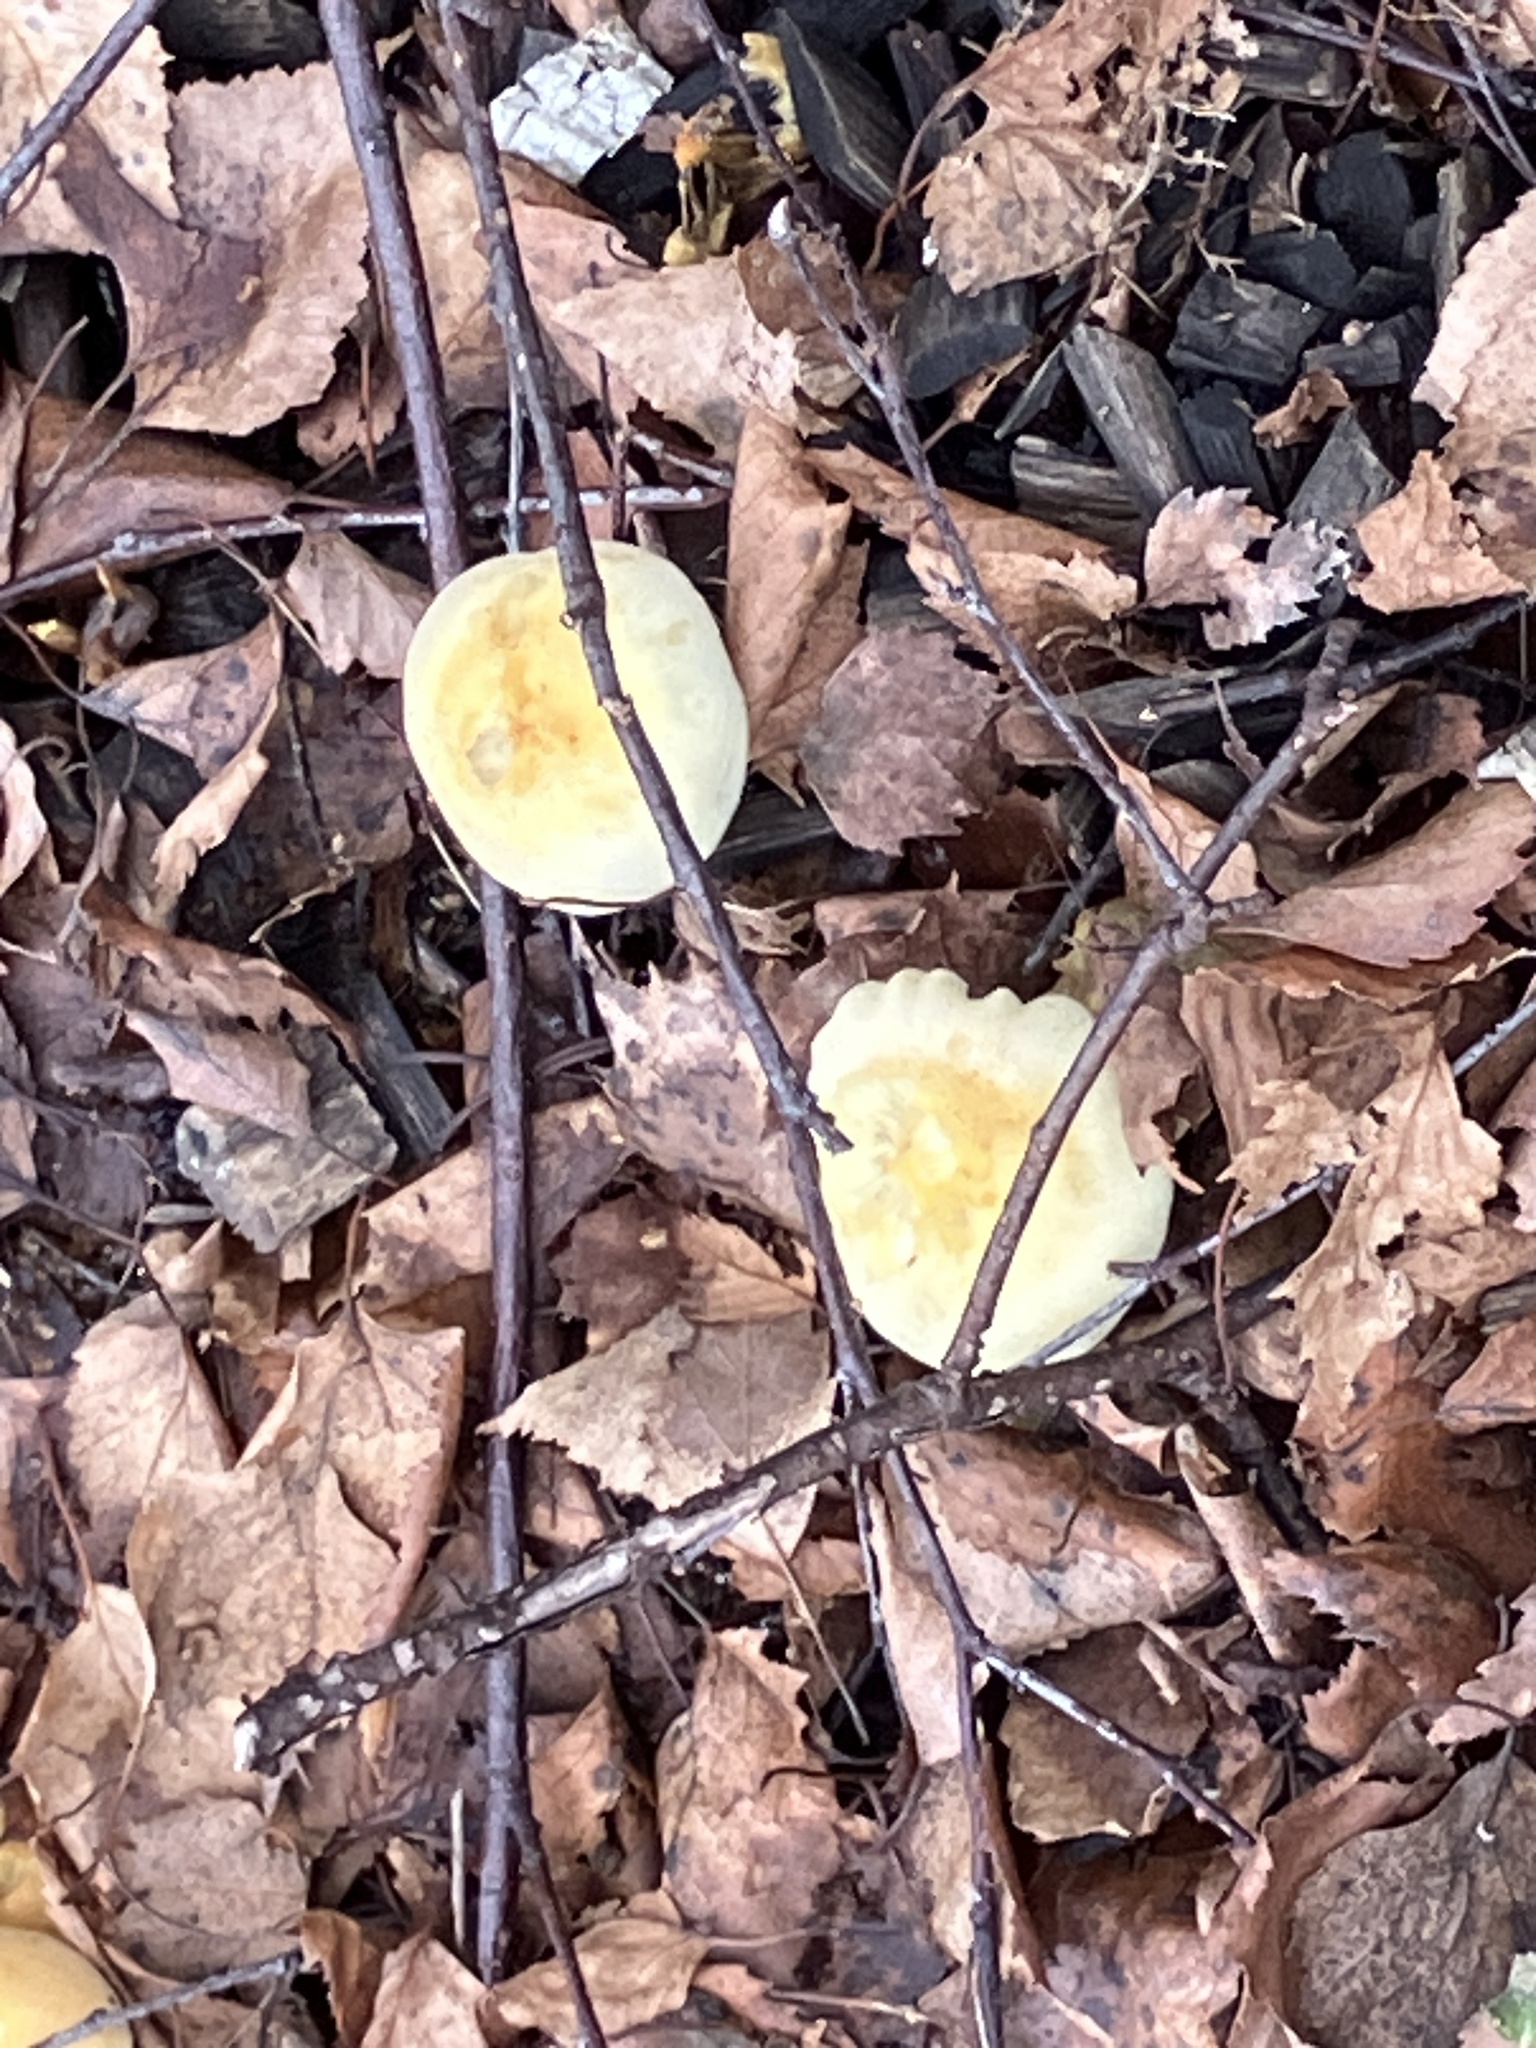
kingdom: Fungi
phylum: Basidiomycota
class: Agaricomycetes
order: Agaricales
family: Strophariaceae
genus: Hypholoma
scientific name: Hypholoma fasciculare
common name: Sulphur tuft
